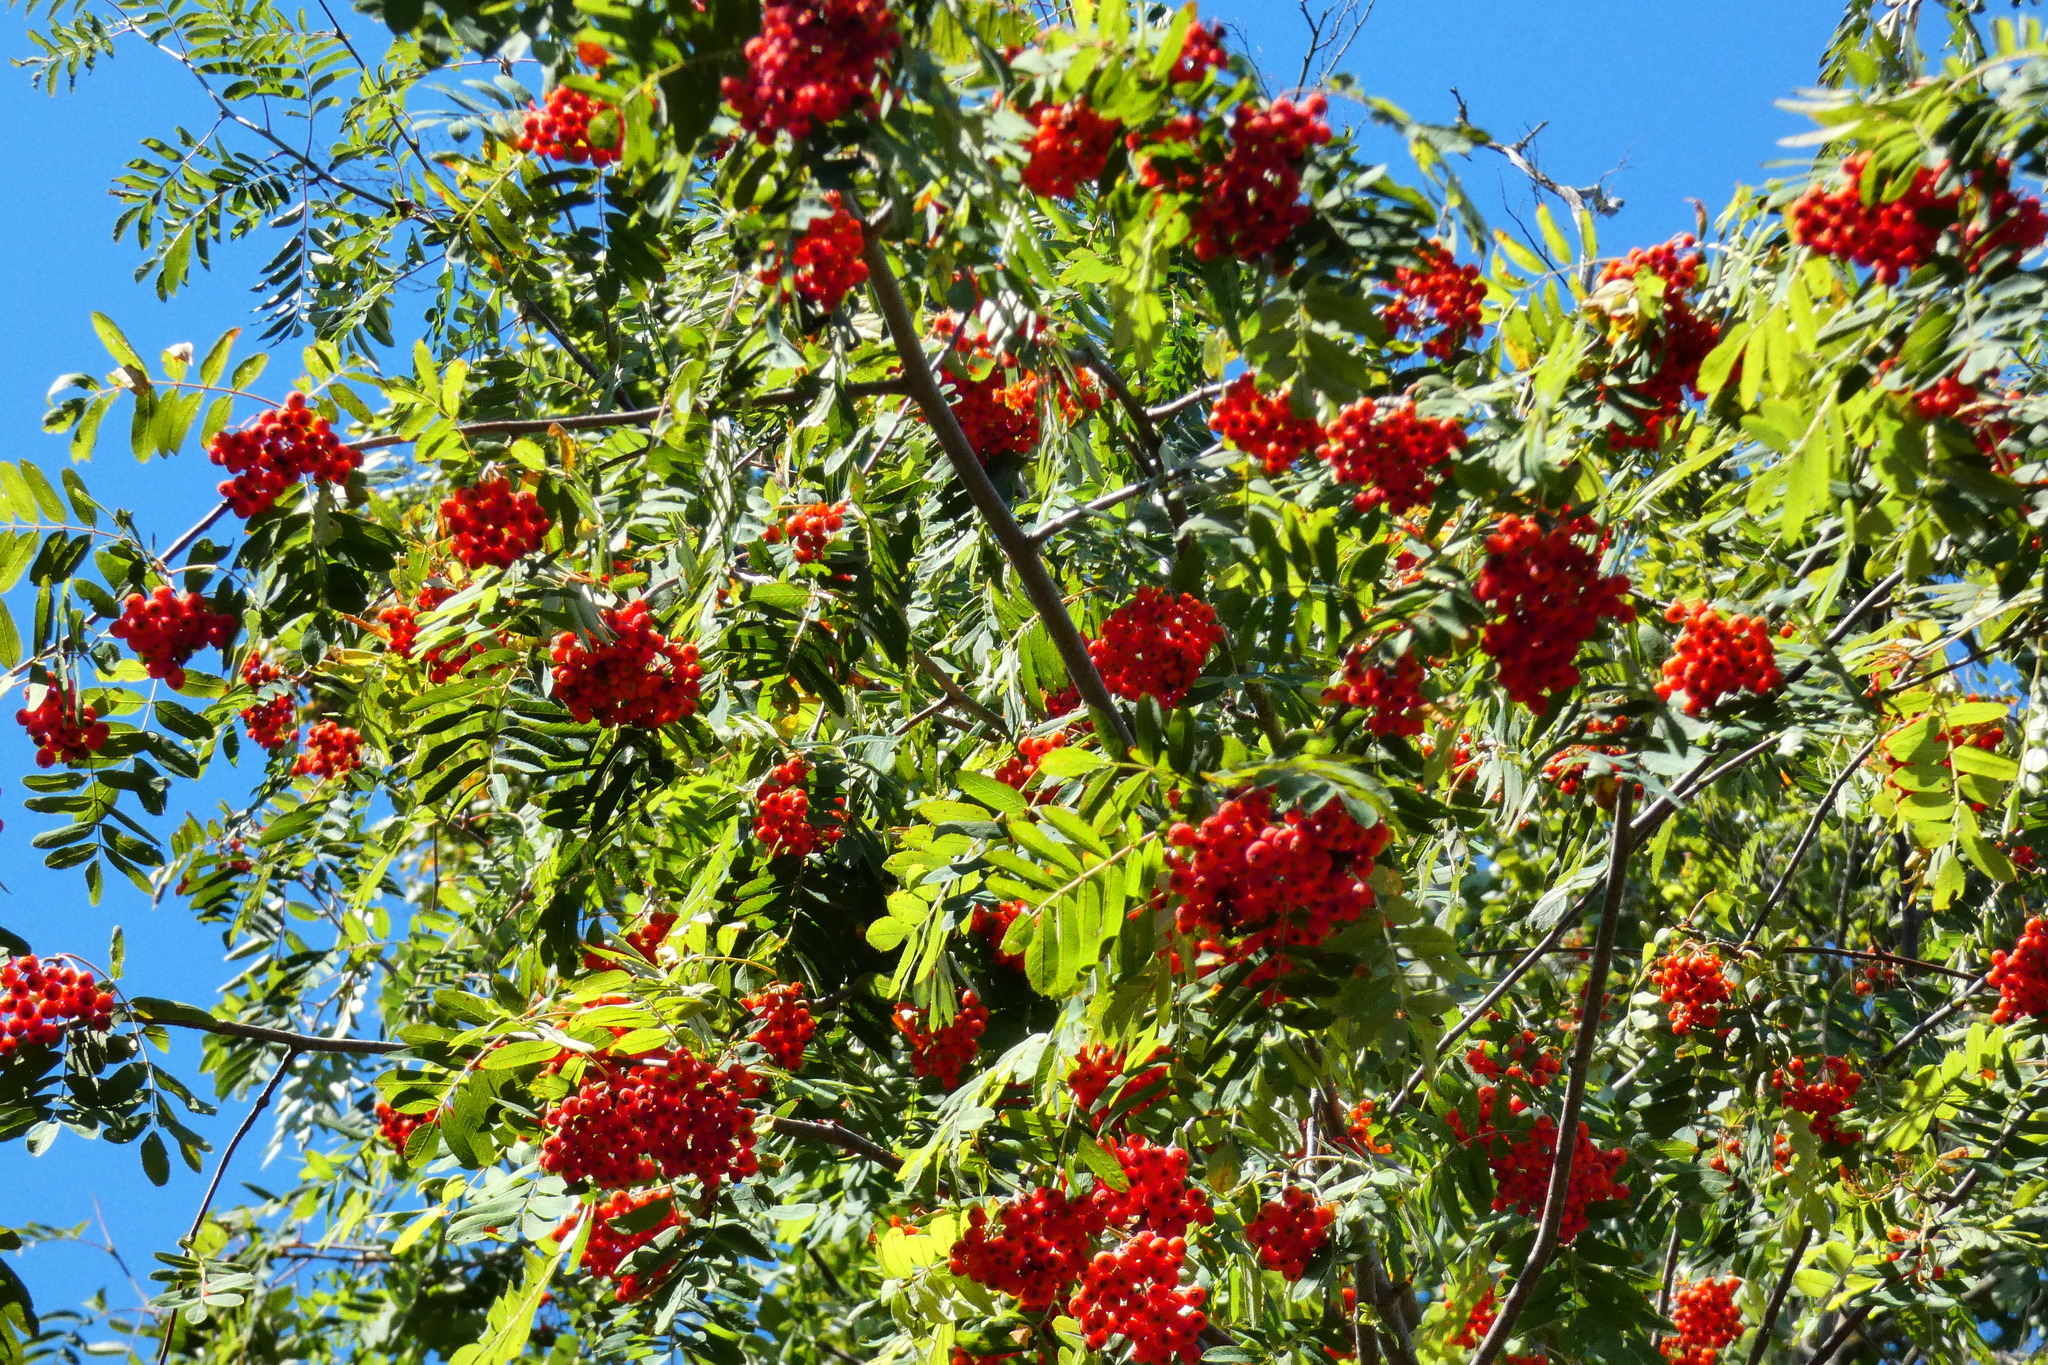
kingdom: Plantae
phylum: Tracheophyta
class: Magnoliopsida
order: Rosales
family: Rosaceae
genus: Sorbus
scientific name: Sorbus aucuparia
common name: Rowan
